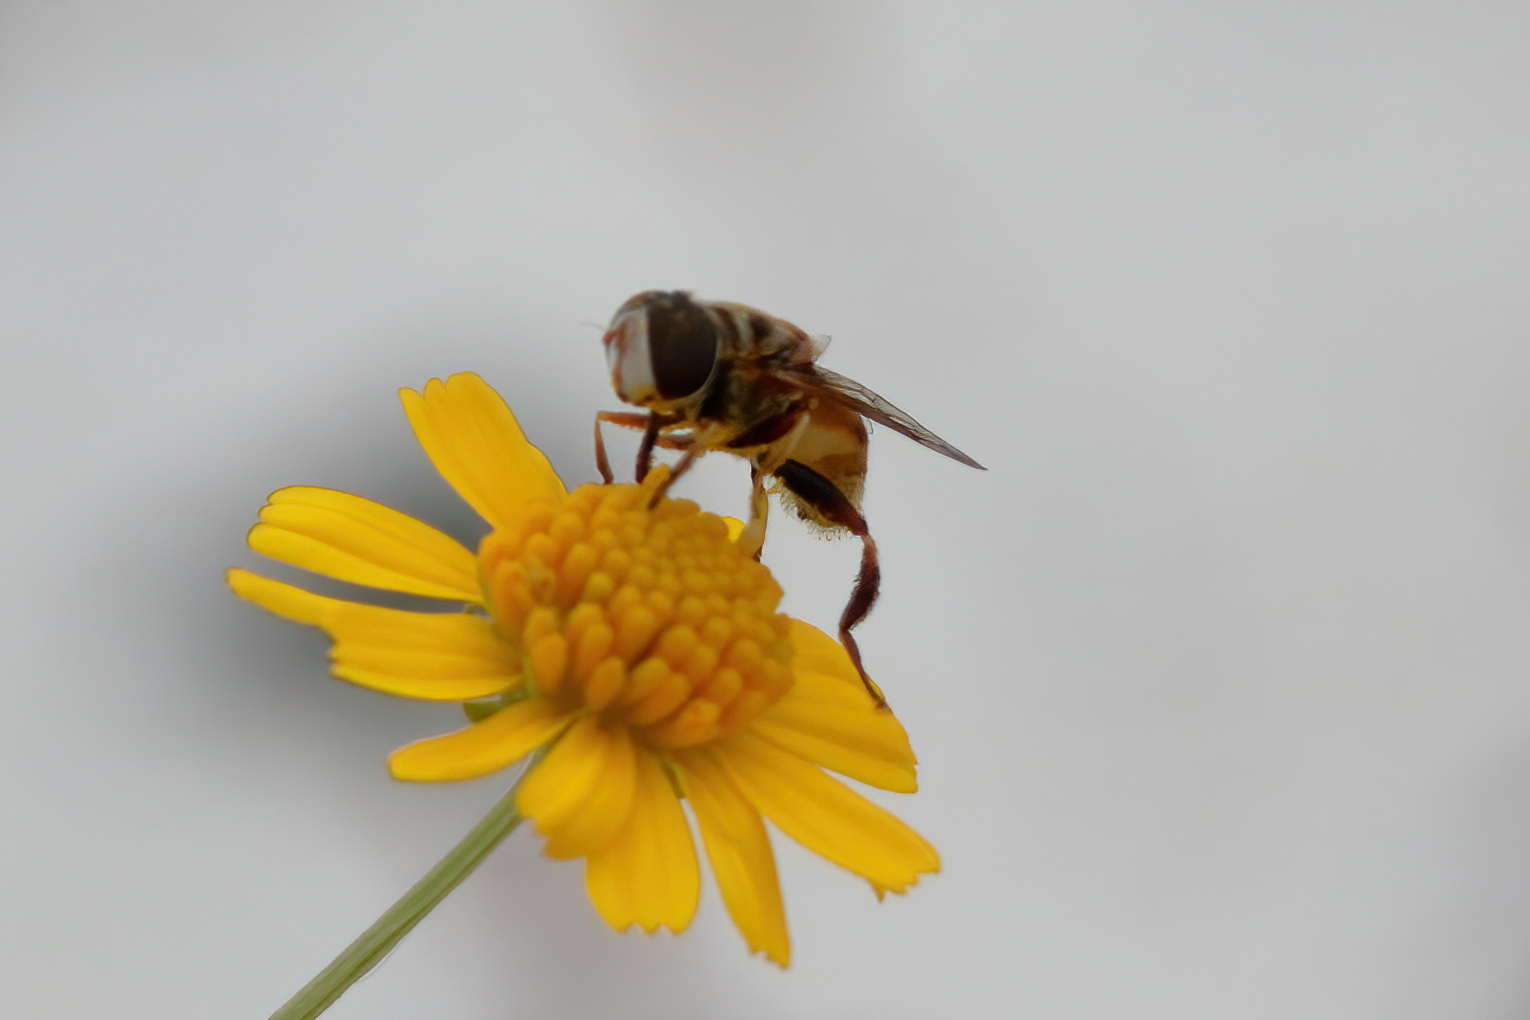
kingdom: Animalia
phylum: Arthropoda
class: Insecta
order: Diptera
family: Syrphidae
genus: Palpada
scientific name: Palpada vinetorum
